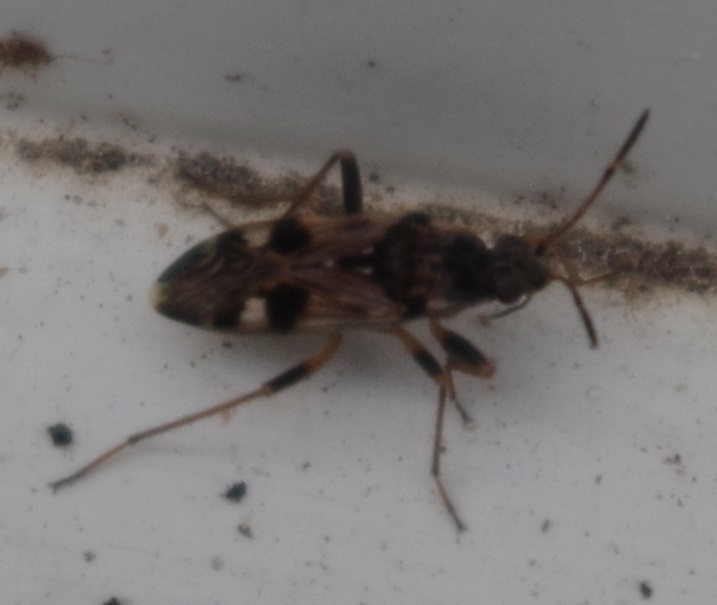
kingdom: Animalia
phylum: Arthropoda
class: Insecta
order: Hemiptera
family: Rhyparochromidae
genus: Beosus
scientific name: Beosus maritimus
